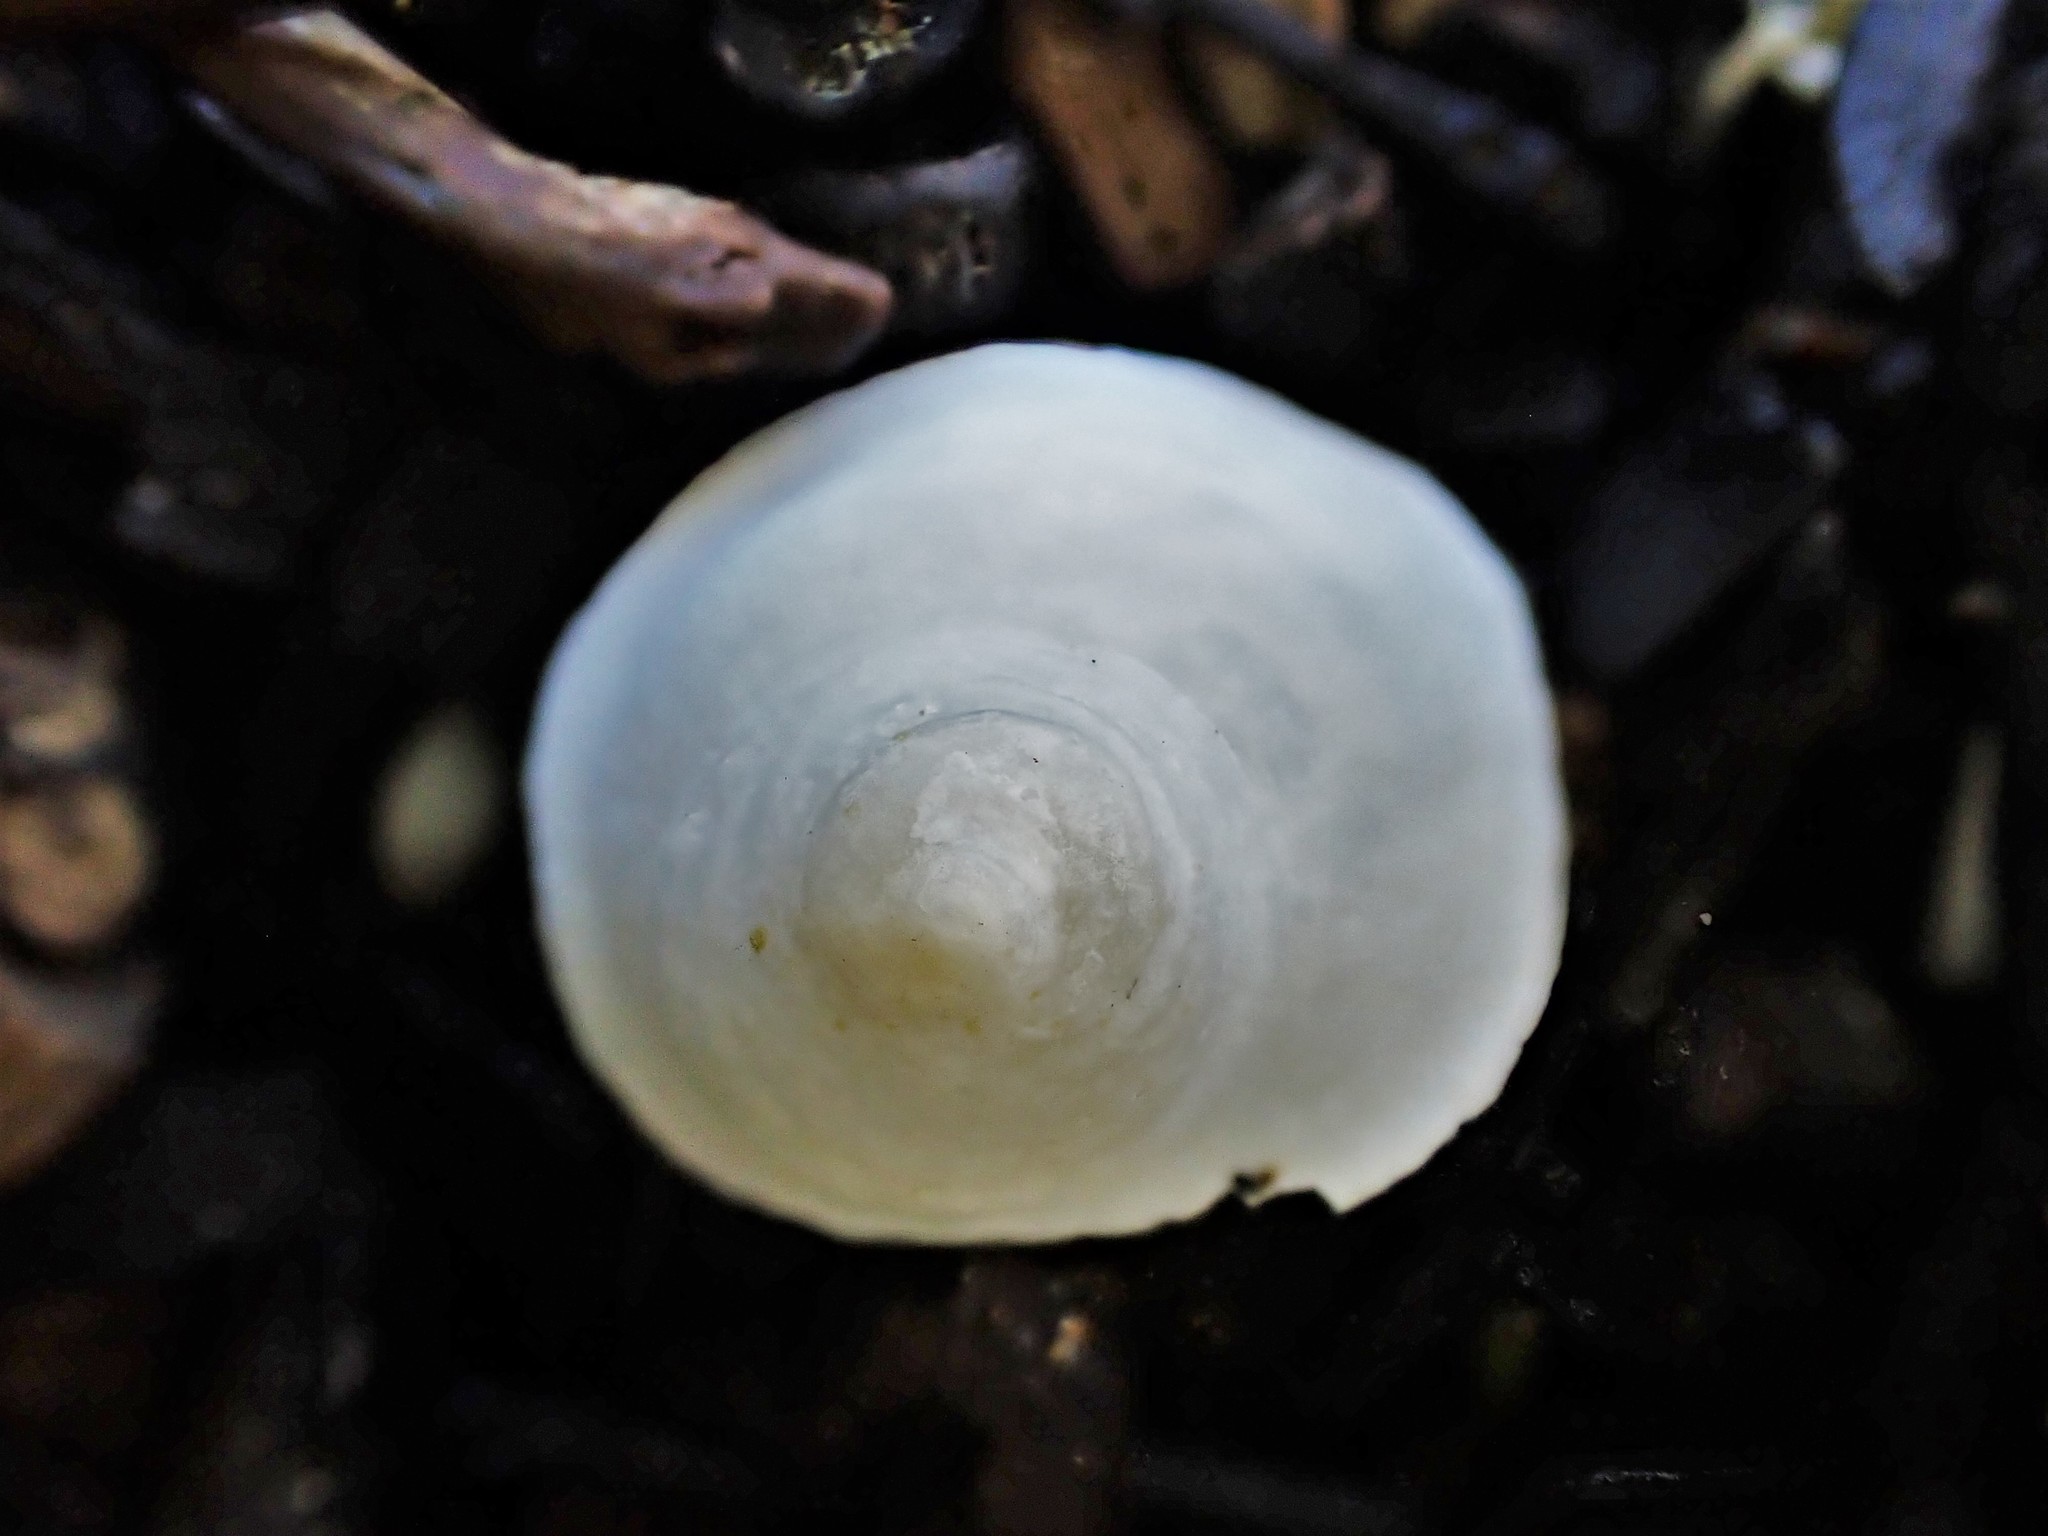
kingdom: Animalia
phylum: Mollusca
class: Gastropoda
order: Littorinimorpha
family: Calyptraeidae
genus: Sigapatella
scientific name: Sigapatella tenuis
